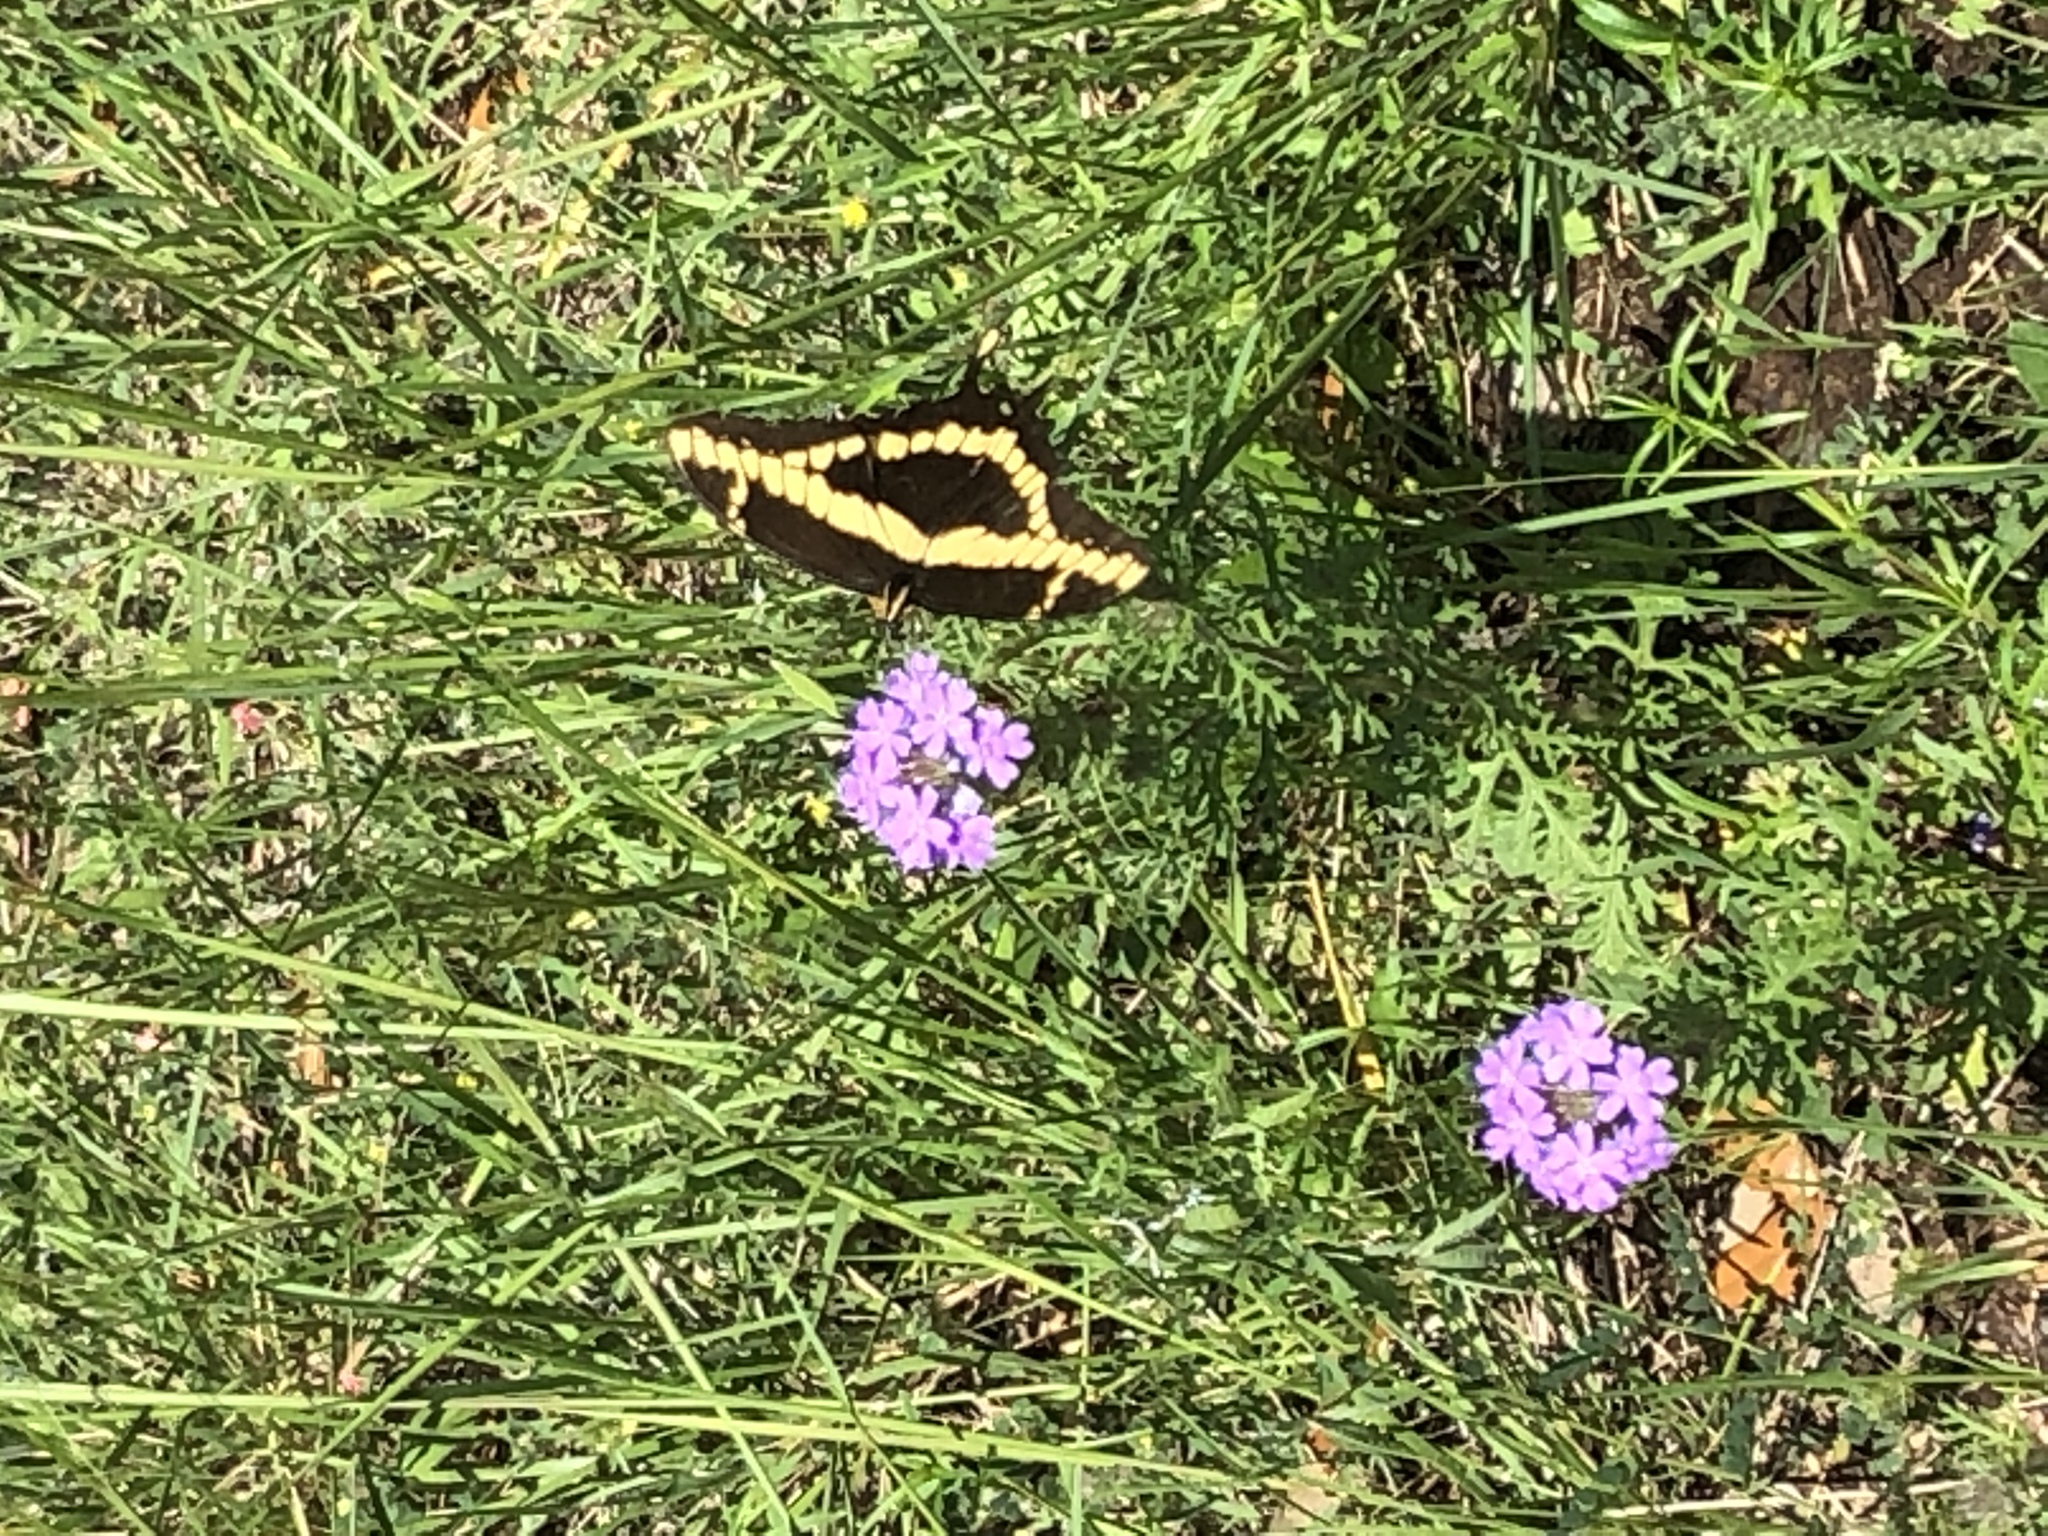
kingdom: Animalia
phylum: Arthropoda
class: Insecta
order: Lepidoptera
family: Papilionidae
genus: Papilio
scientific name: Papilio rumiko
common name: Western giant swallowtail
